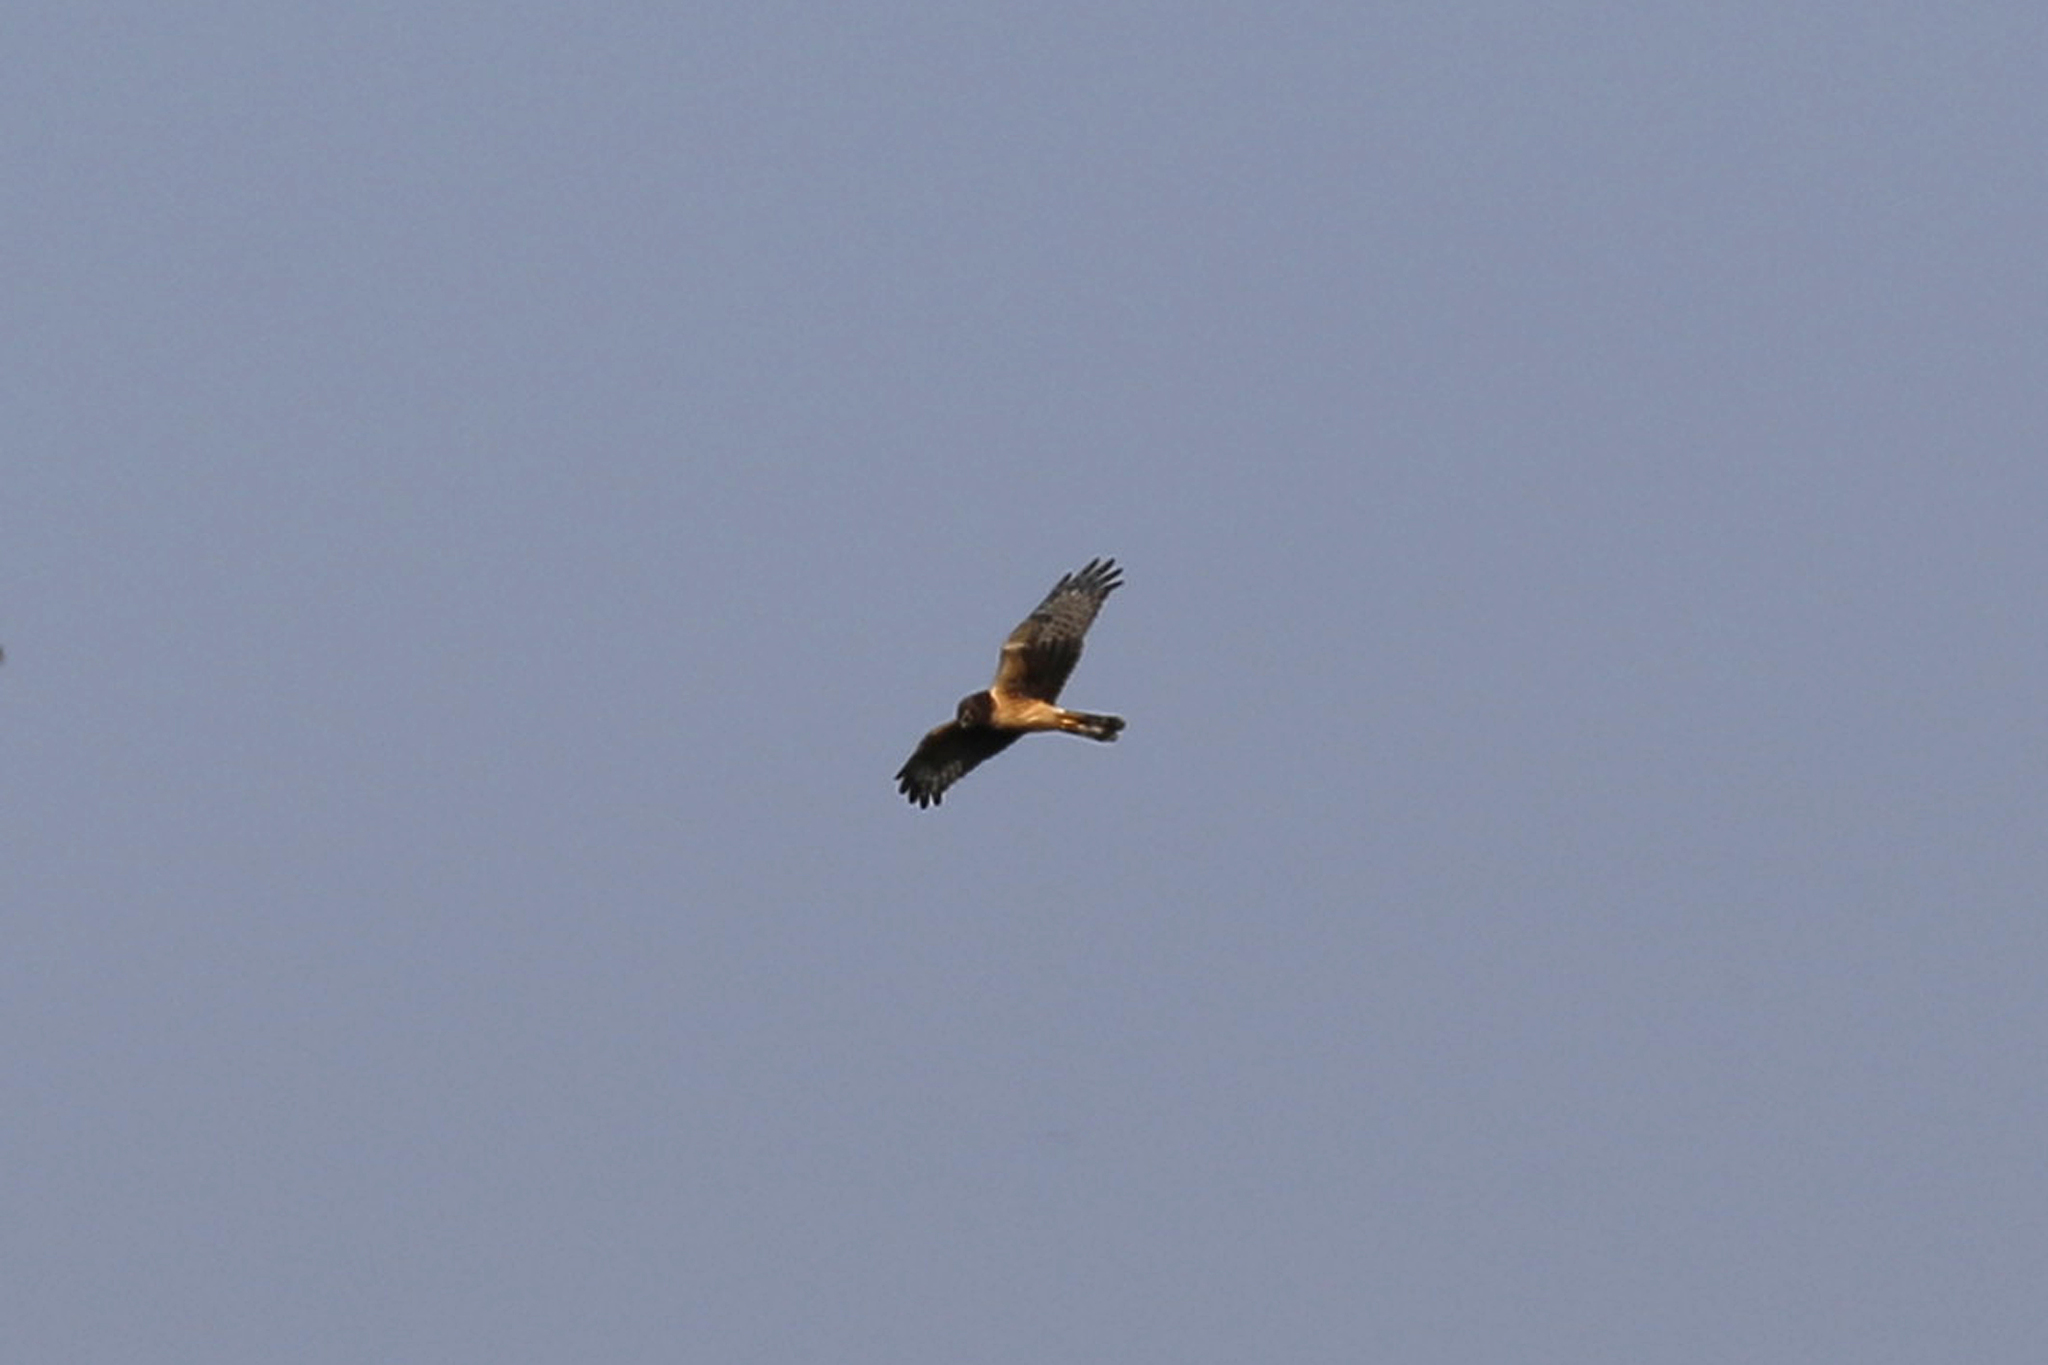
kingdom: Animalia
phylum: Chordata
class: Aves
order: Accipitriformes
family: Accipitridae
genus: Circus
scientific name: Circus cyaneus
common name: Hen harrier
